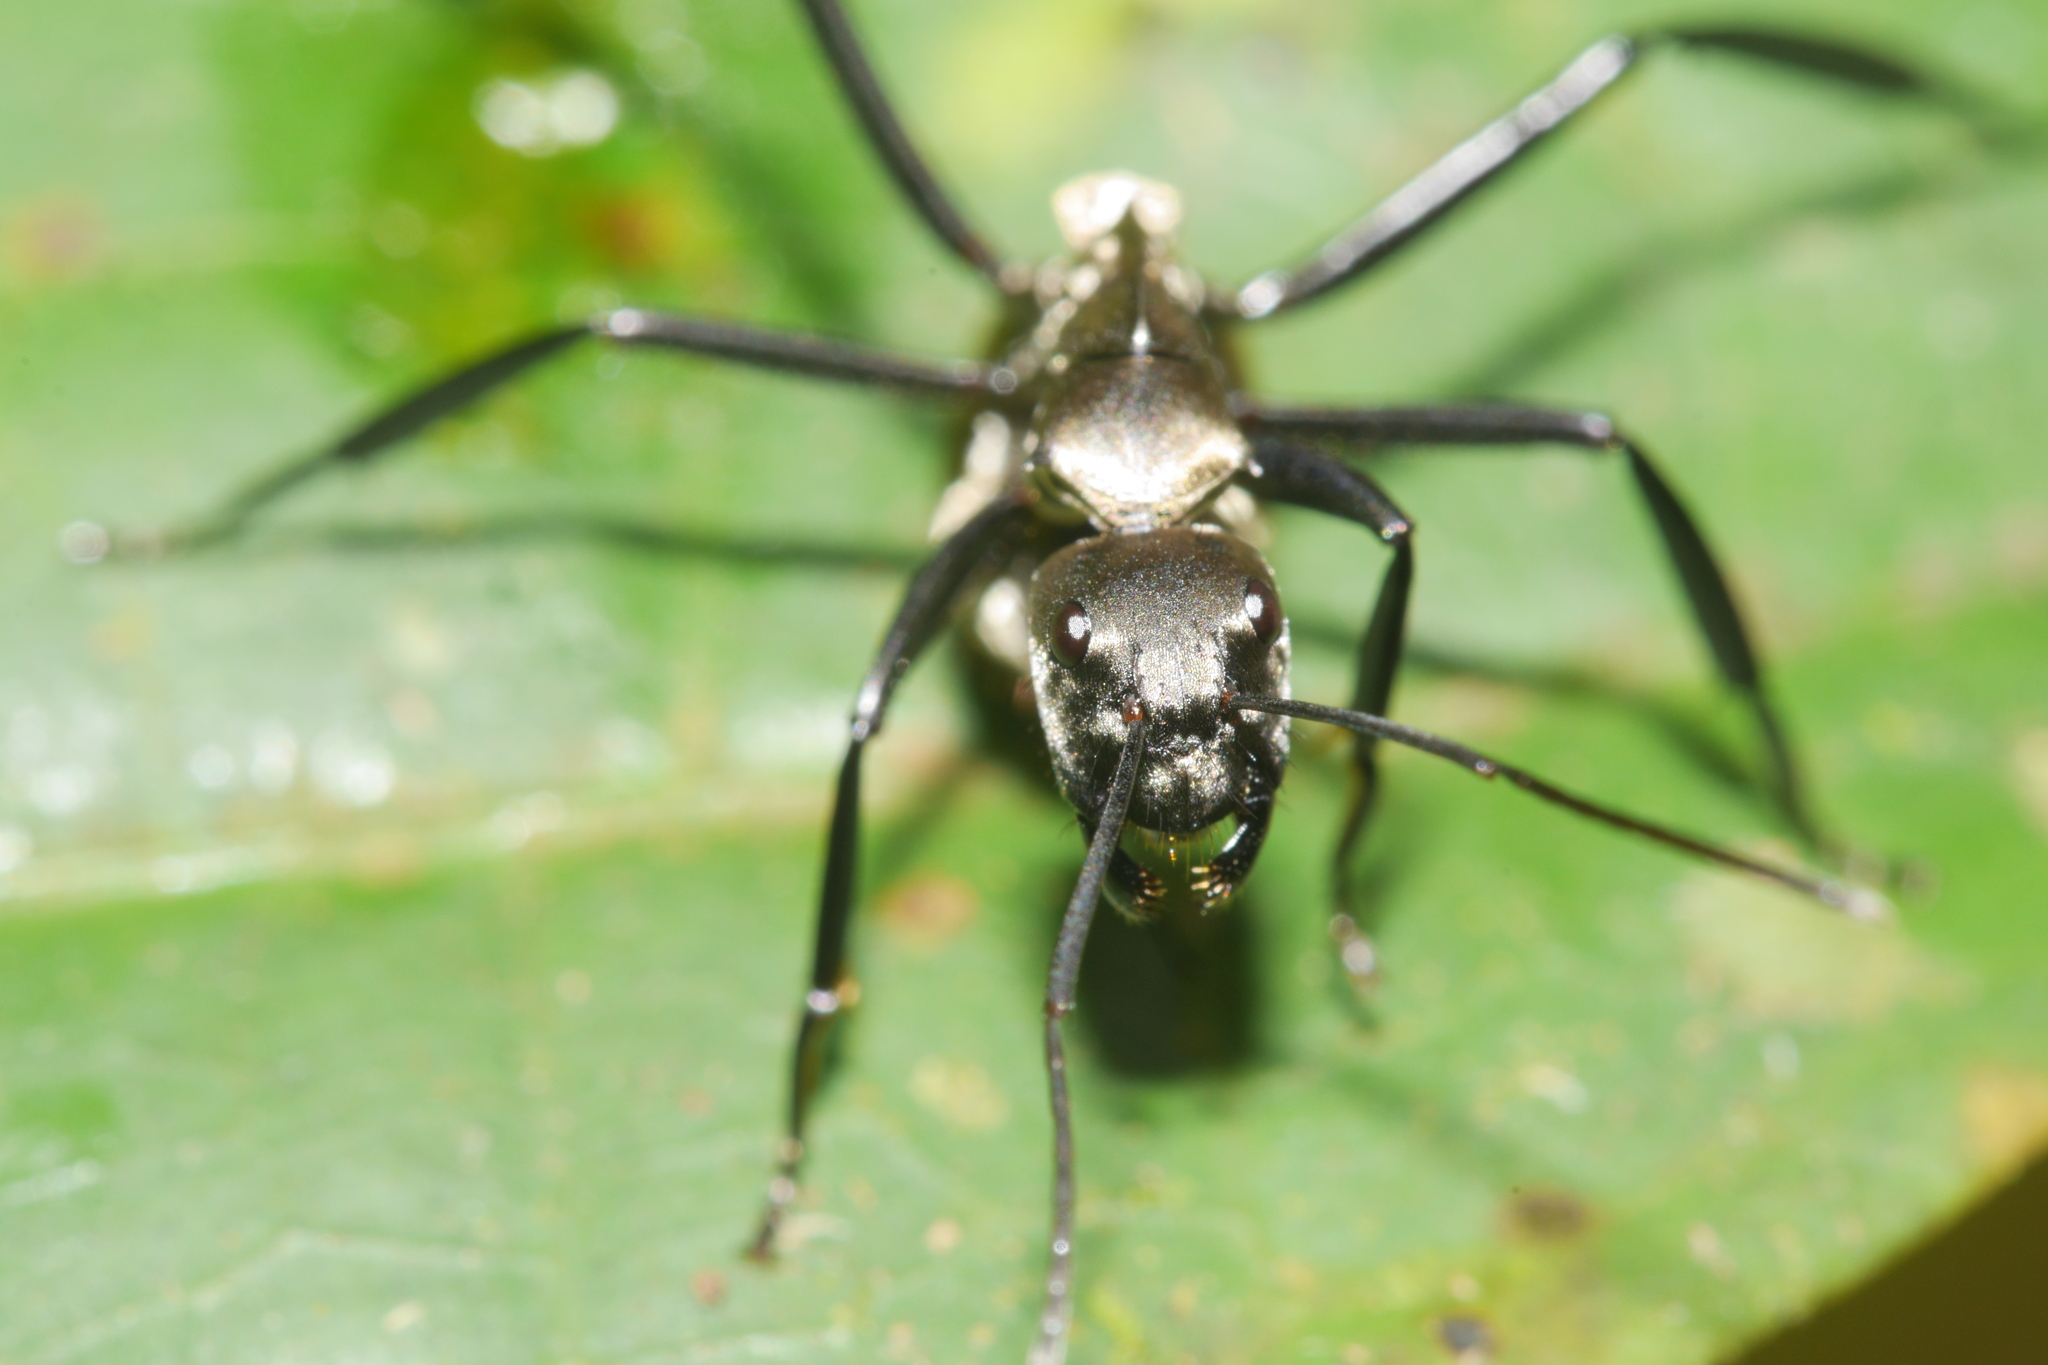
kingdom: Animalia
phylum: Arthropoda
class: Insecta
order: Hymenoptera
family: Formicidae
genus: Camponotus
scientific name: Camponotus sericeiventris
